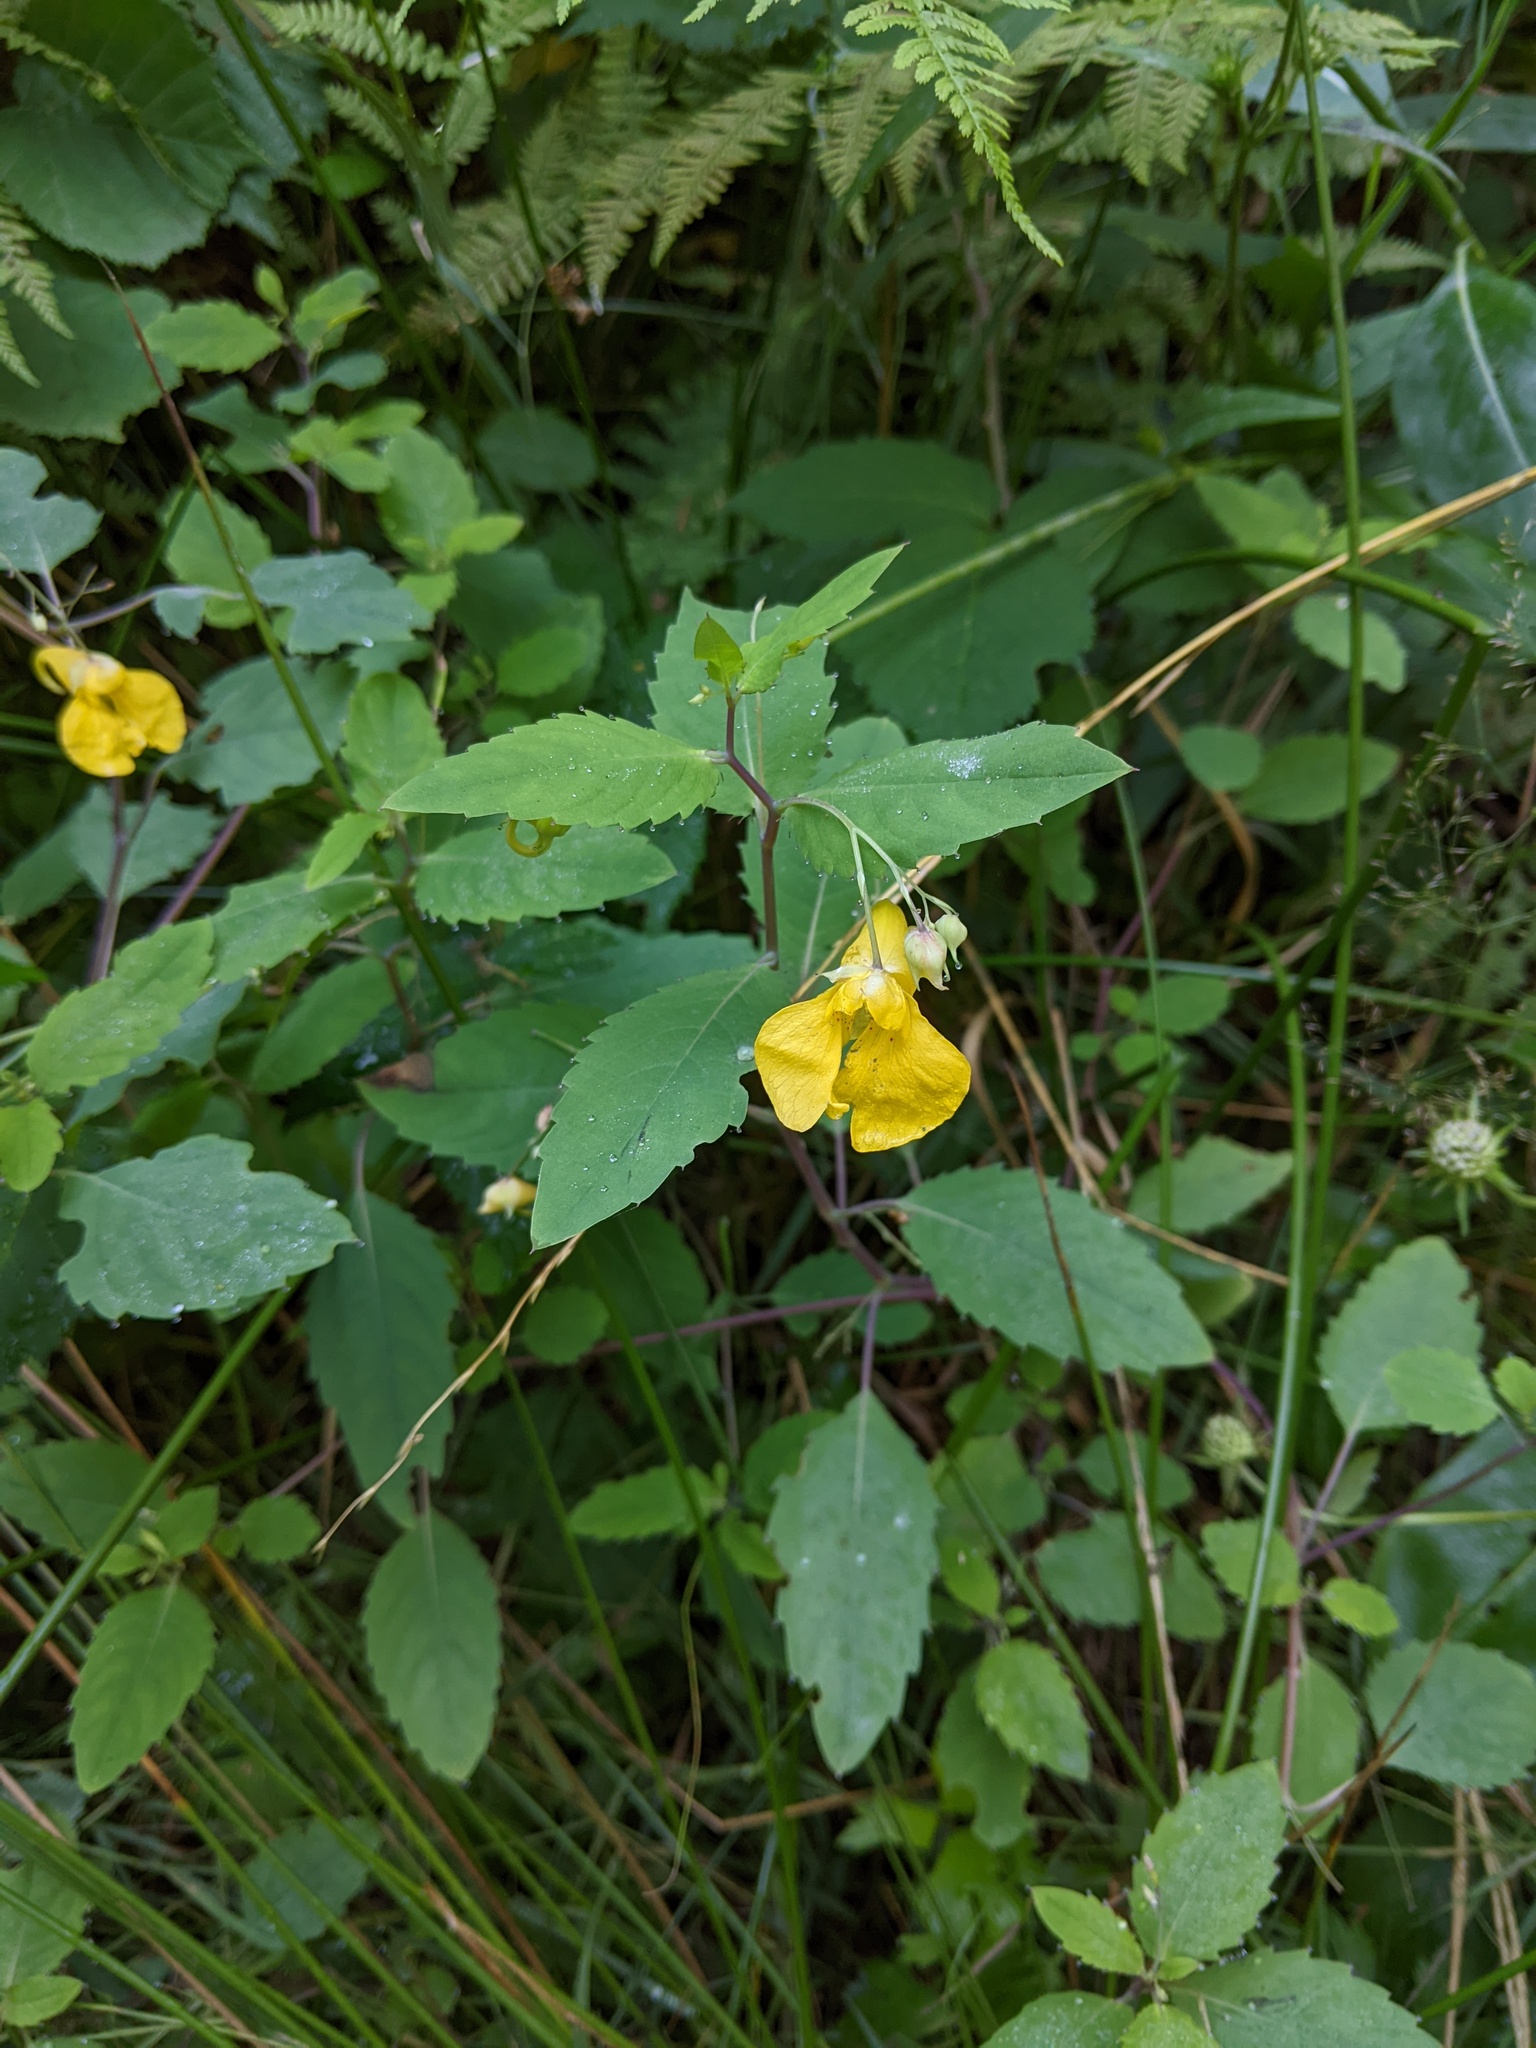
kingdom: Plantae
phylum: Tracheophyta
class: Magnoliopsida
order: Ericales
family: Balsaminaceae
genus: Impatiens
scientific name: Impatiens noli-tangere
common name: Touch-me-not balsam
